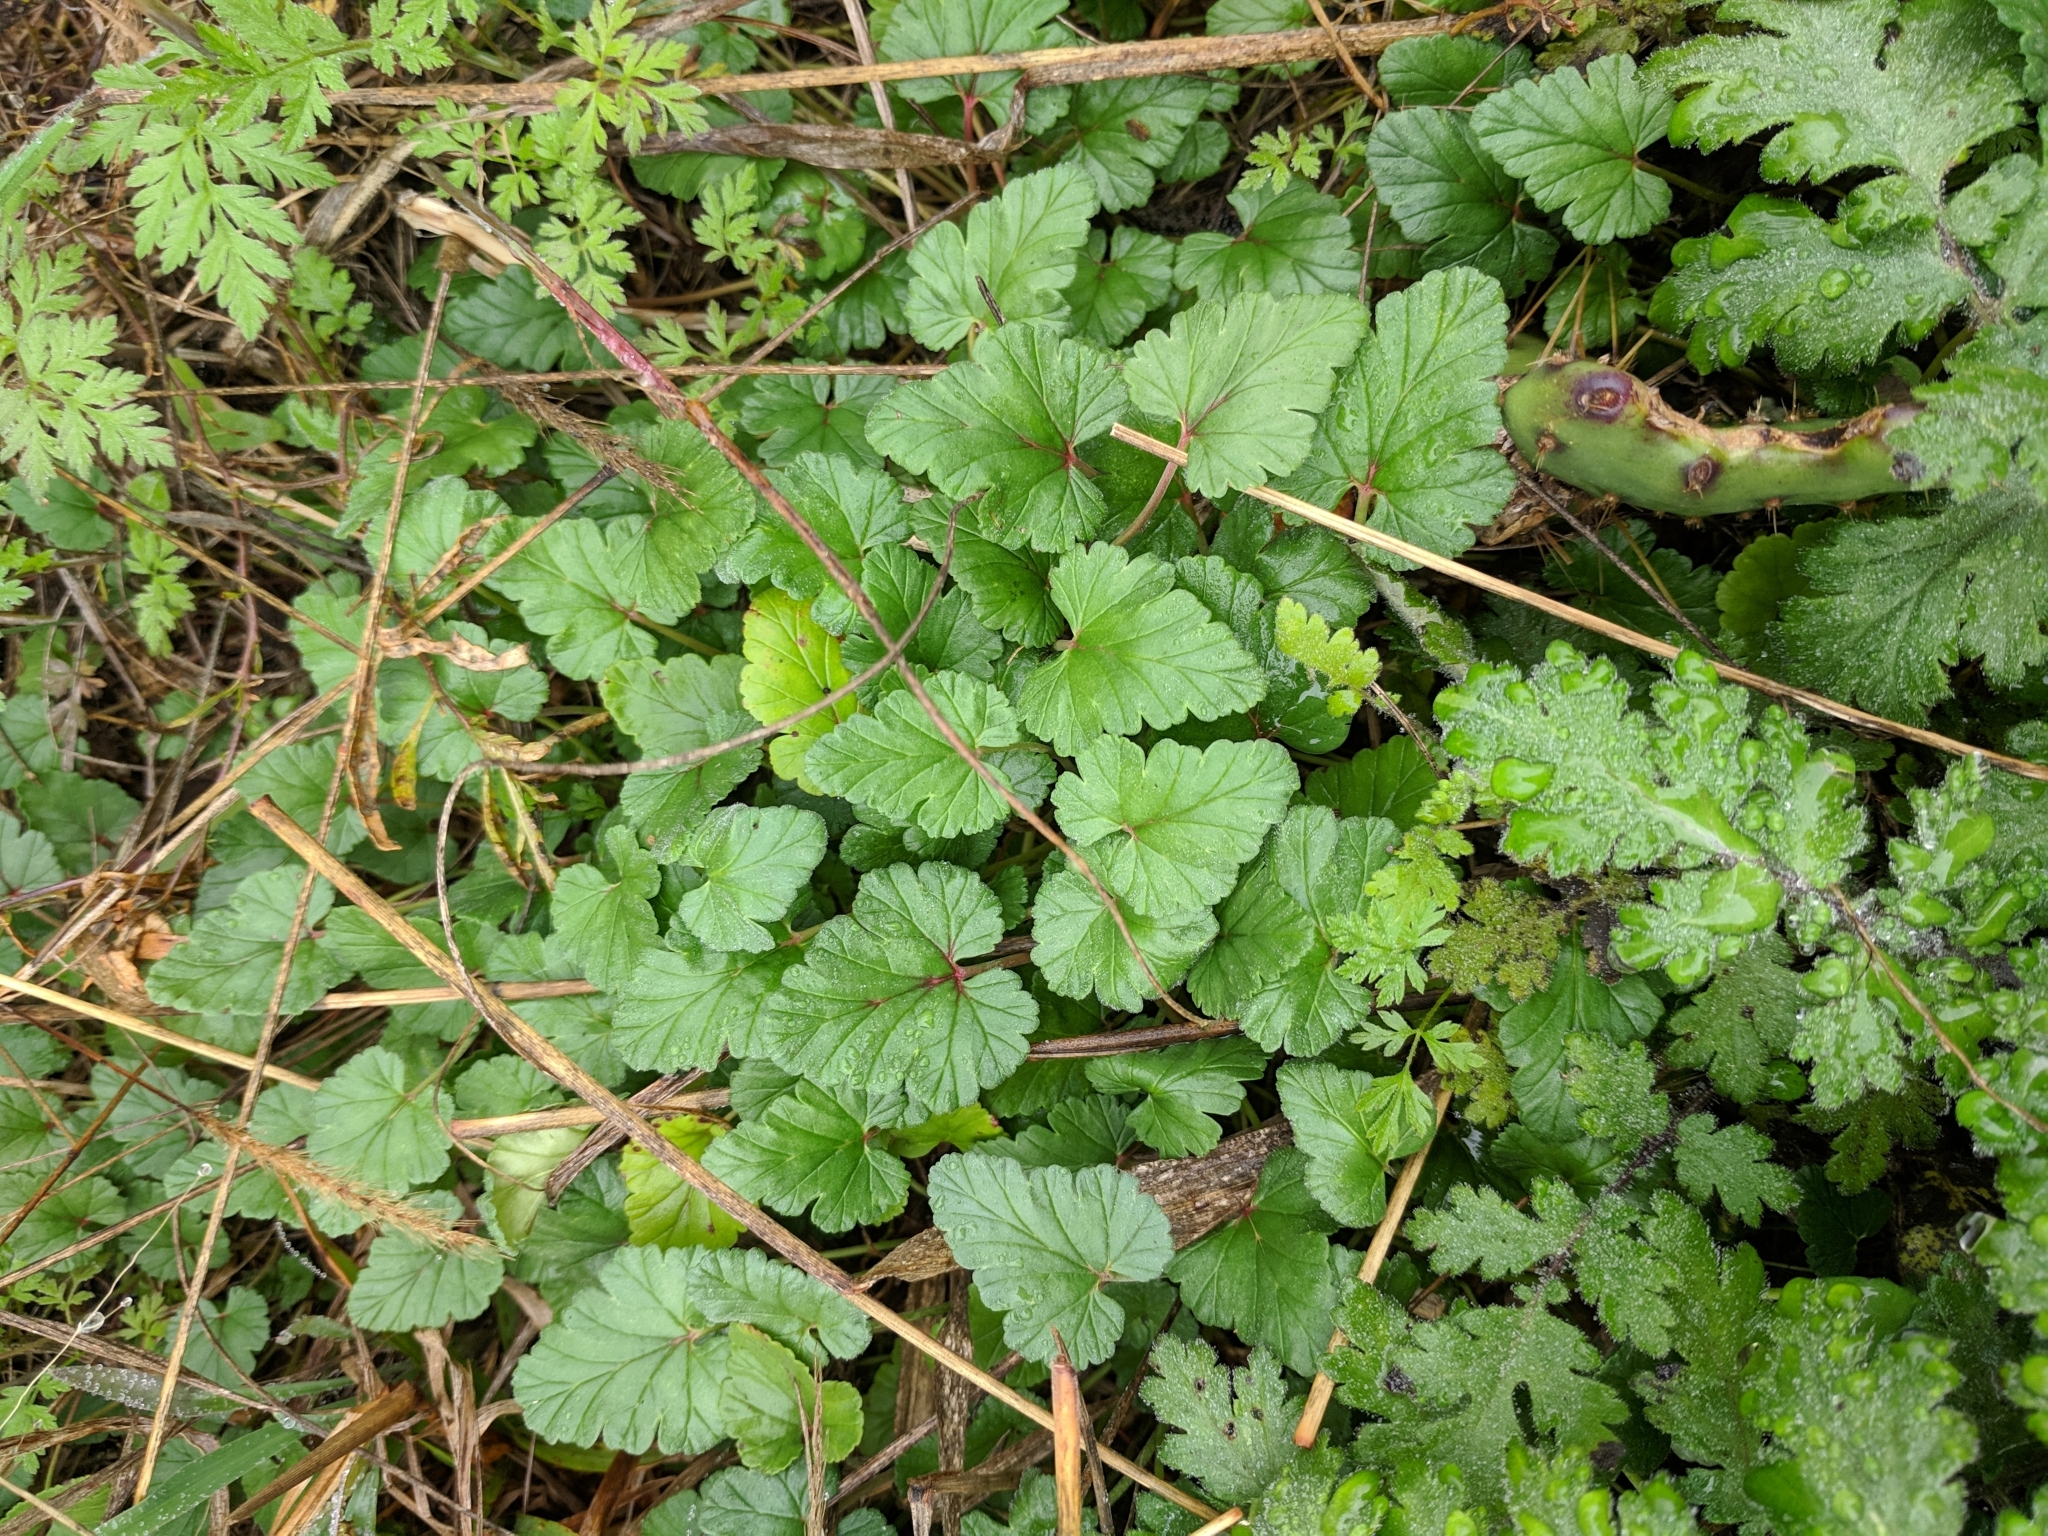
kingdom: Plantae
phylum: Tracheophyta
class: Magnoliopsida
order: Geraniales
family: Geraniaceae
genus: Erodium
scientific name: Erodium texanum
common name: Texas stork's-bill
